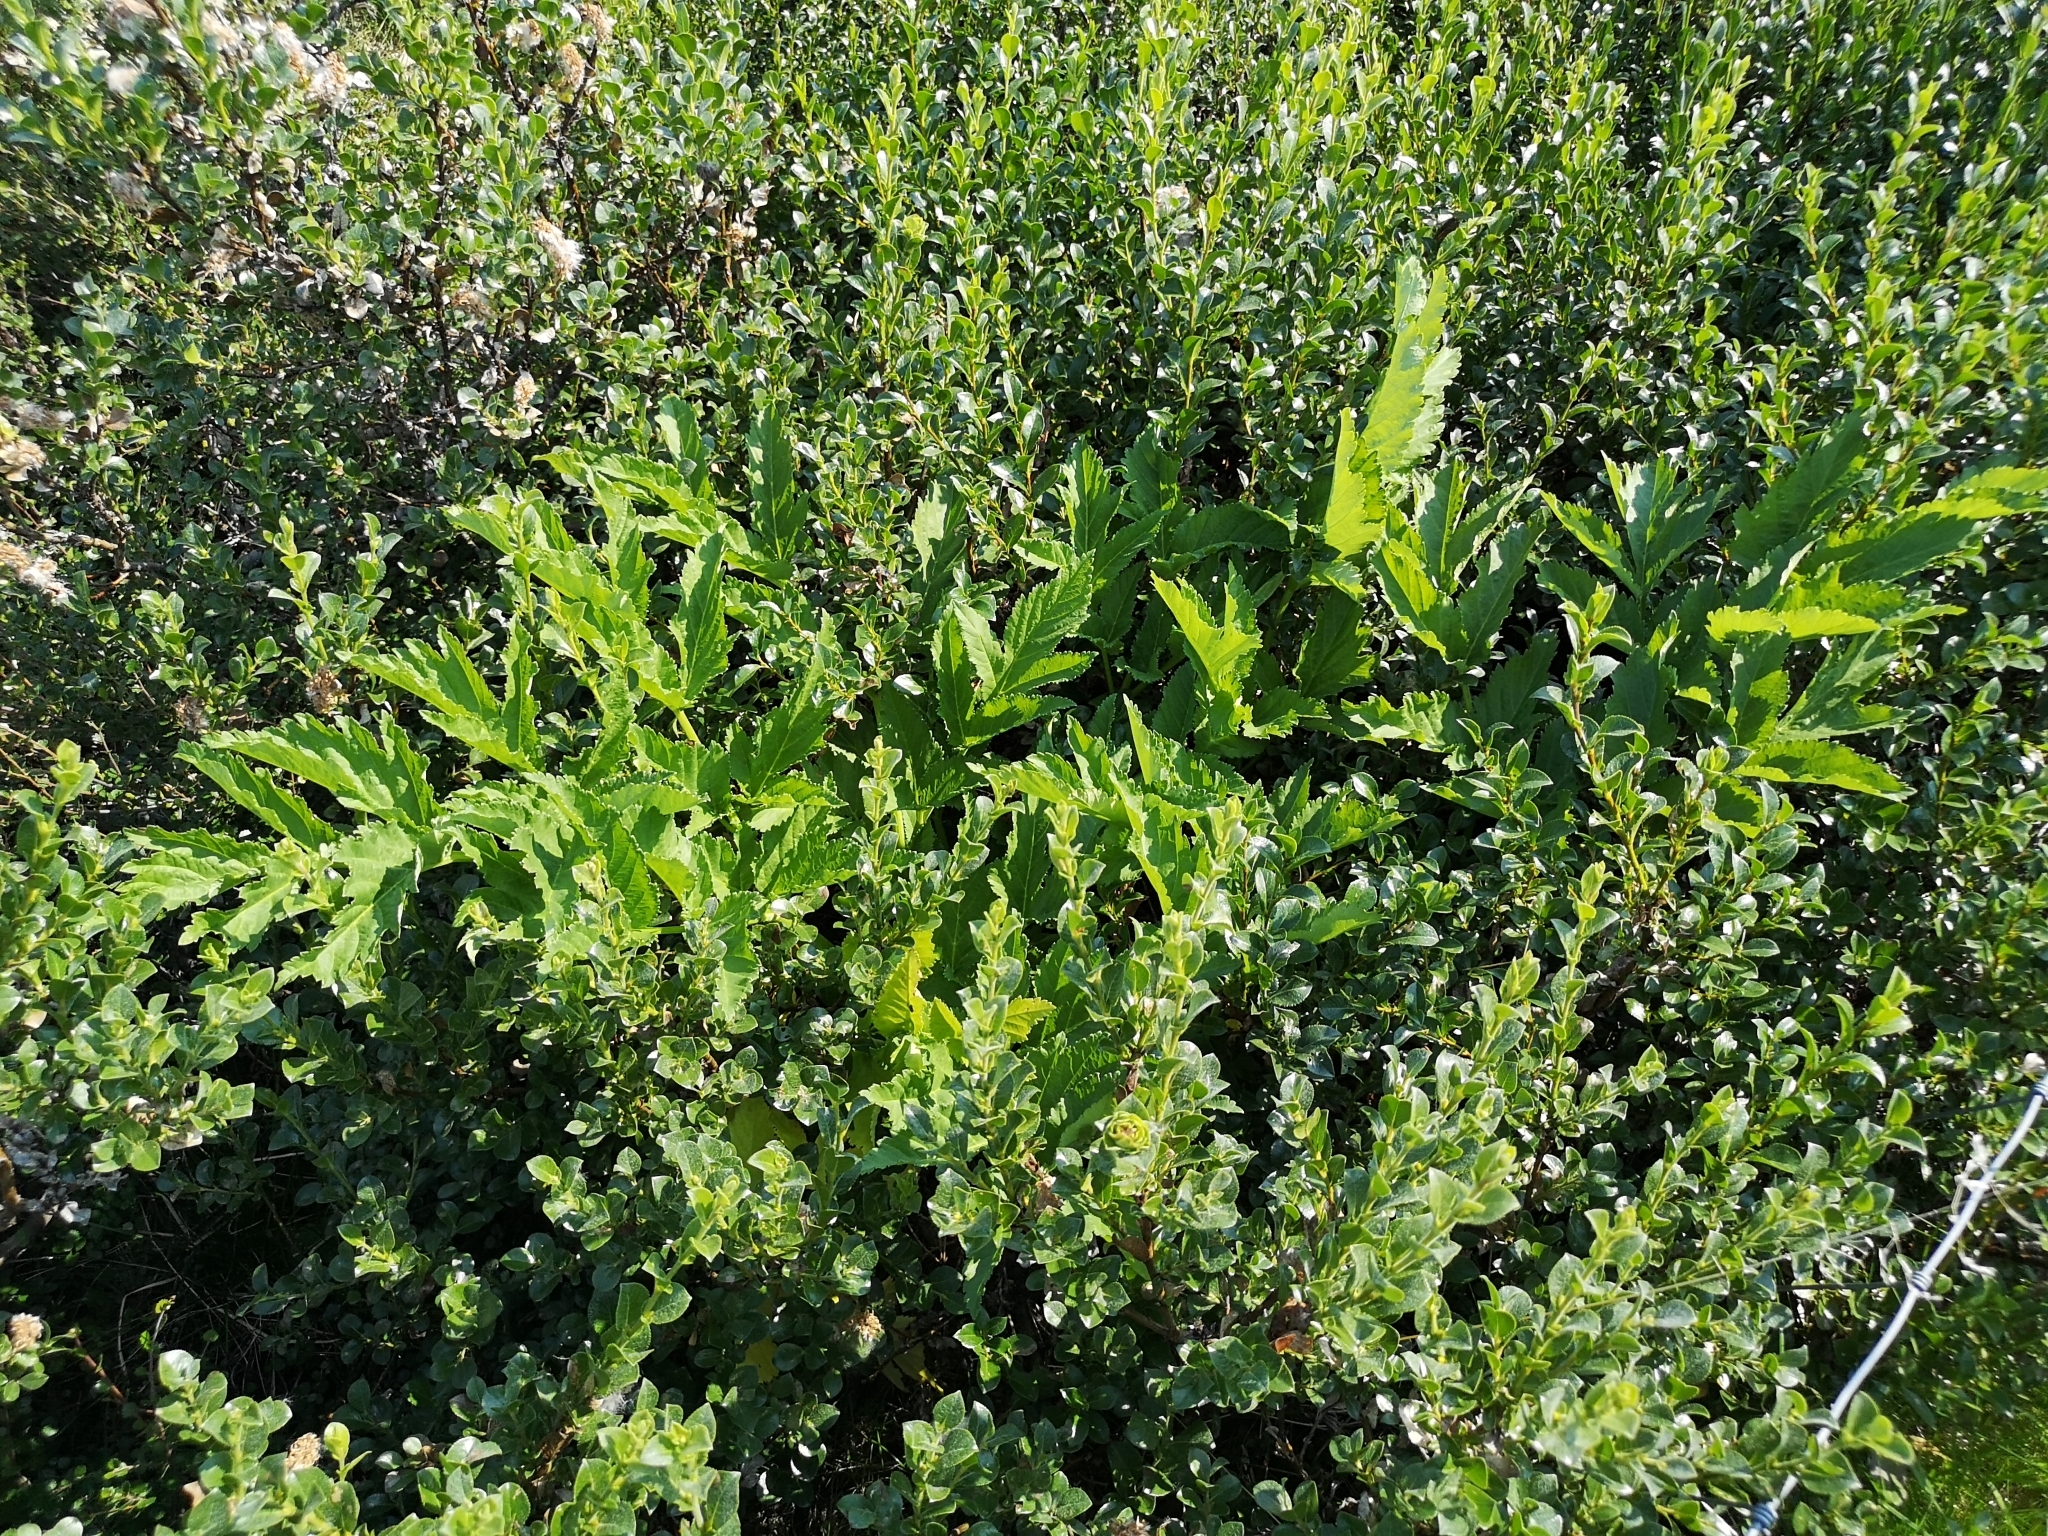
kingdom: Plantae
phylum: Tracheophyta
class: Magnoliopsida
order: Apiales
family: Apiaceae
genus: Angelica
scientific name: Angelica archangelica
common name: Garden angelica
